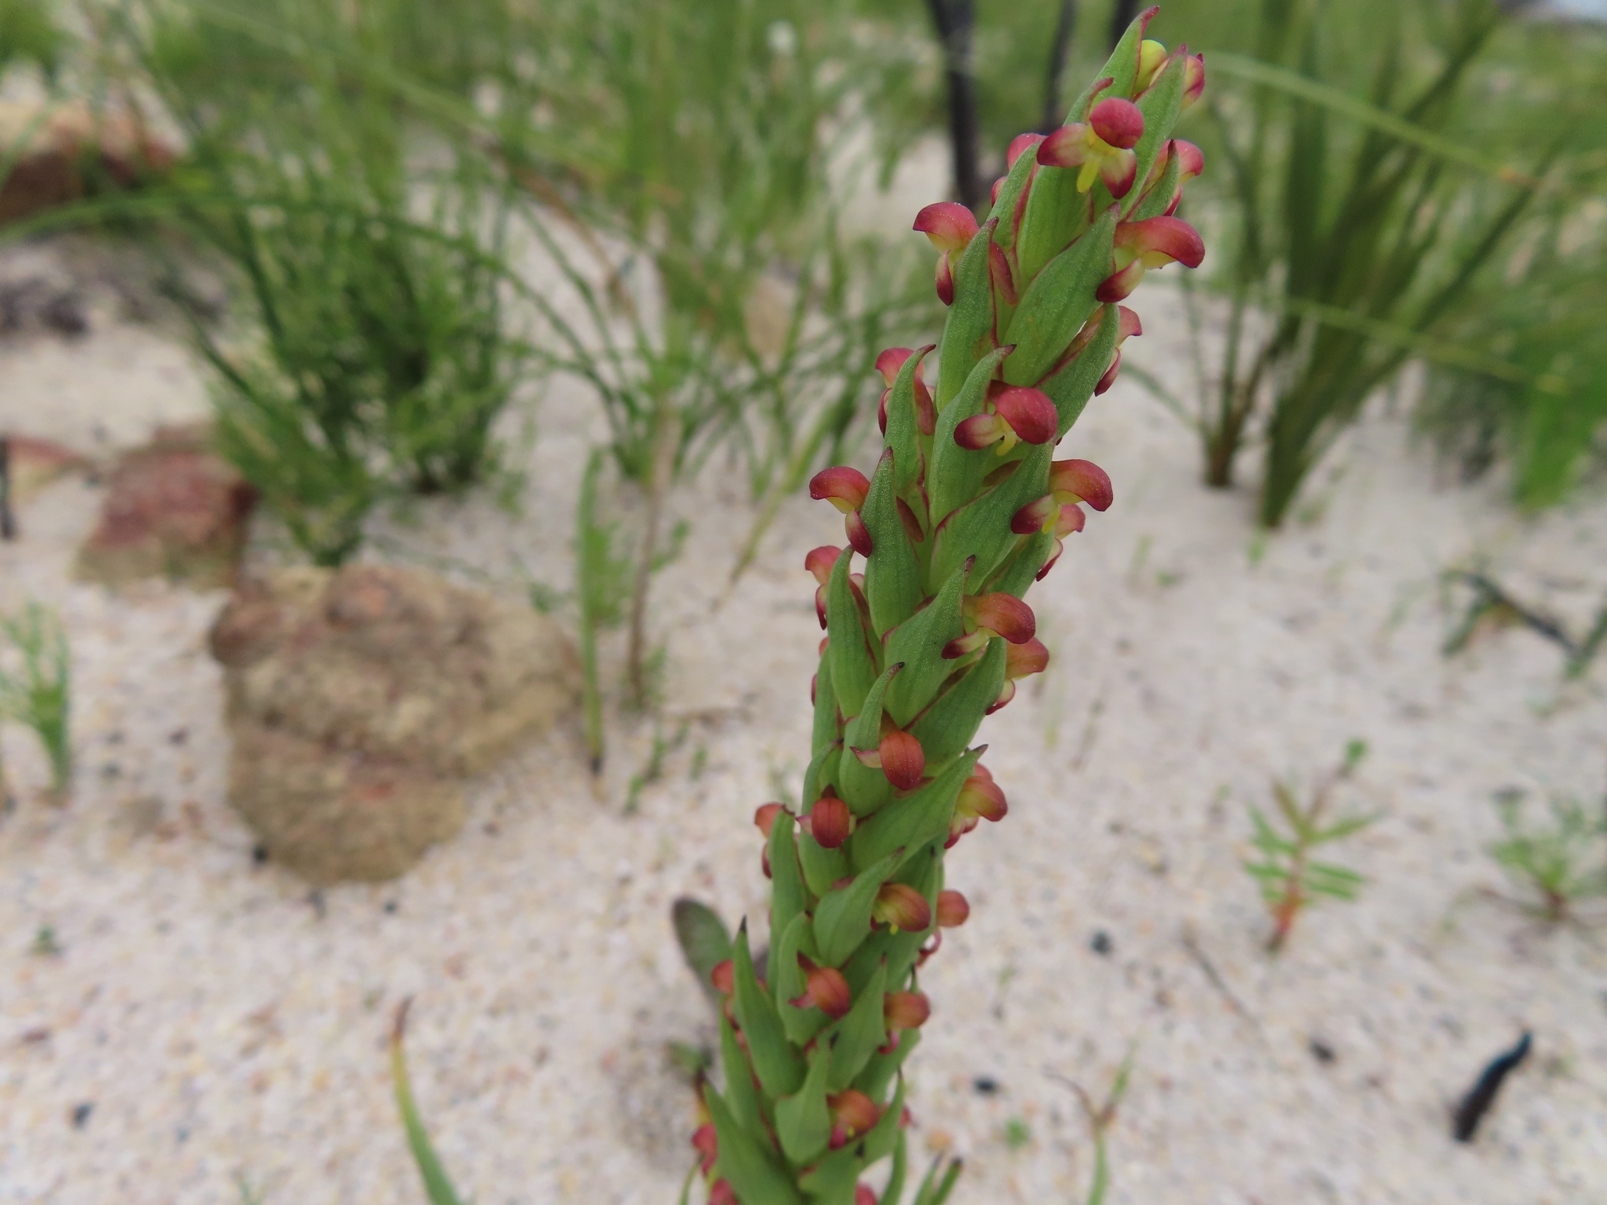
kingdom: Plantae
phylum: Tracheophyta
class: Liliopsida
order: Asparagales
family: Orchidaceae
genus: Disa
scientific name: Disa bracteata
